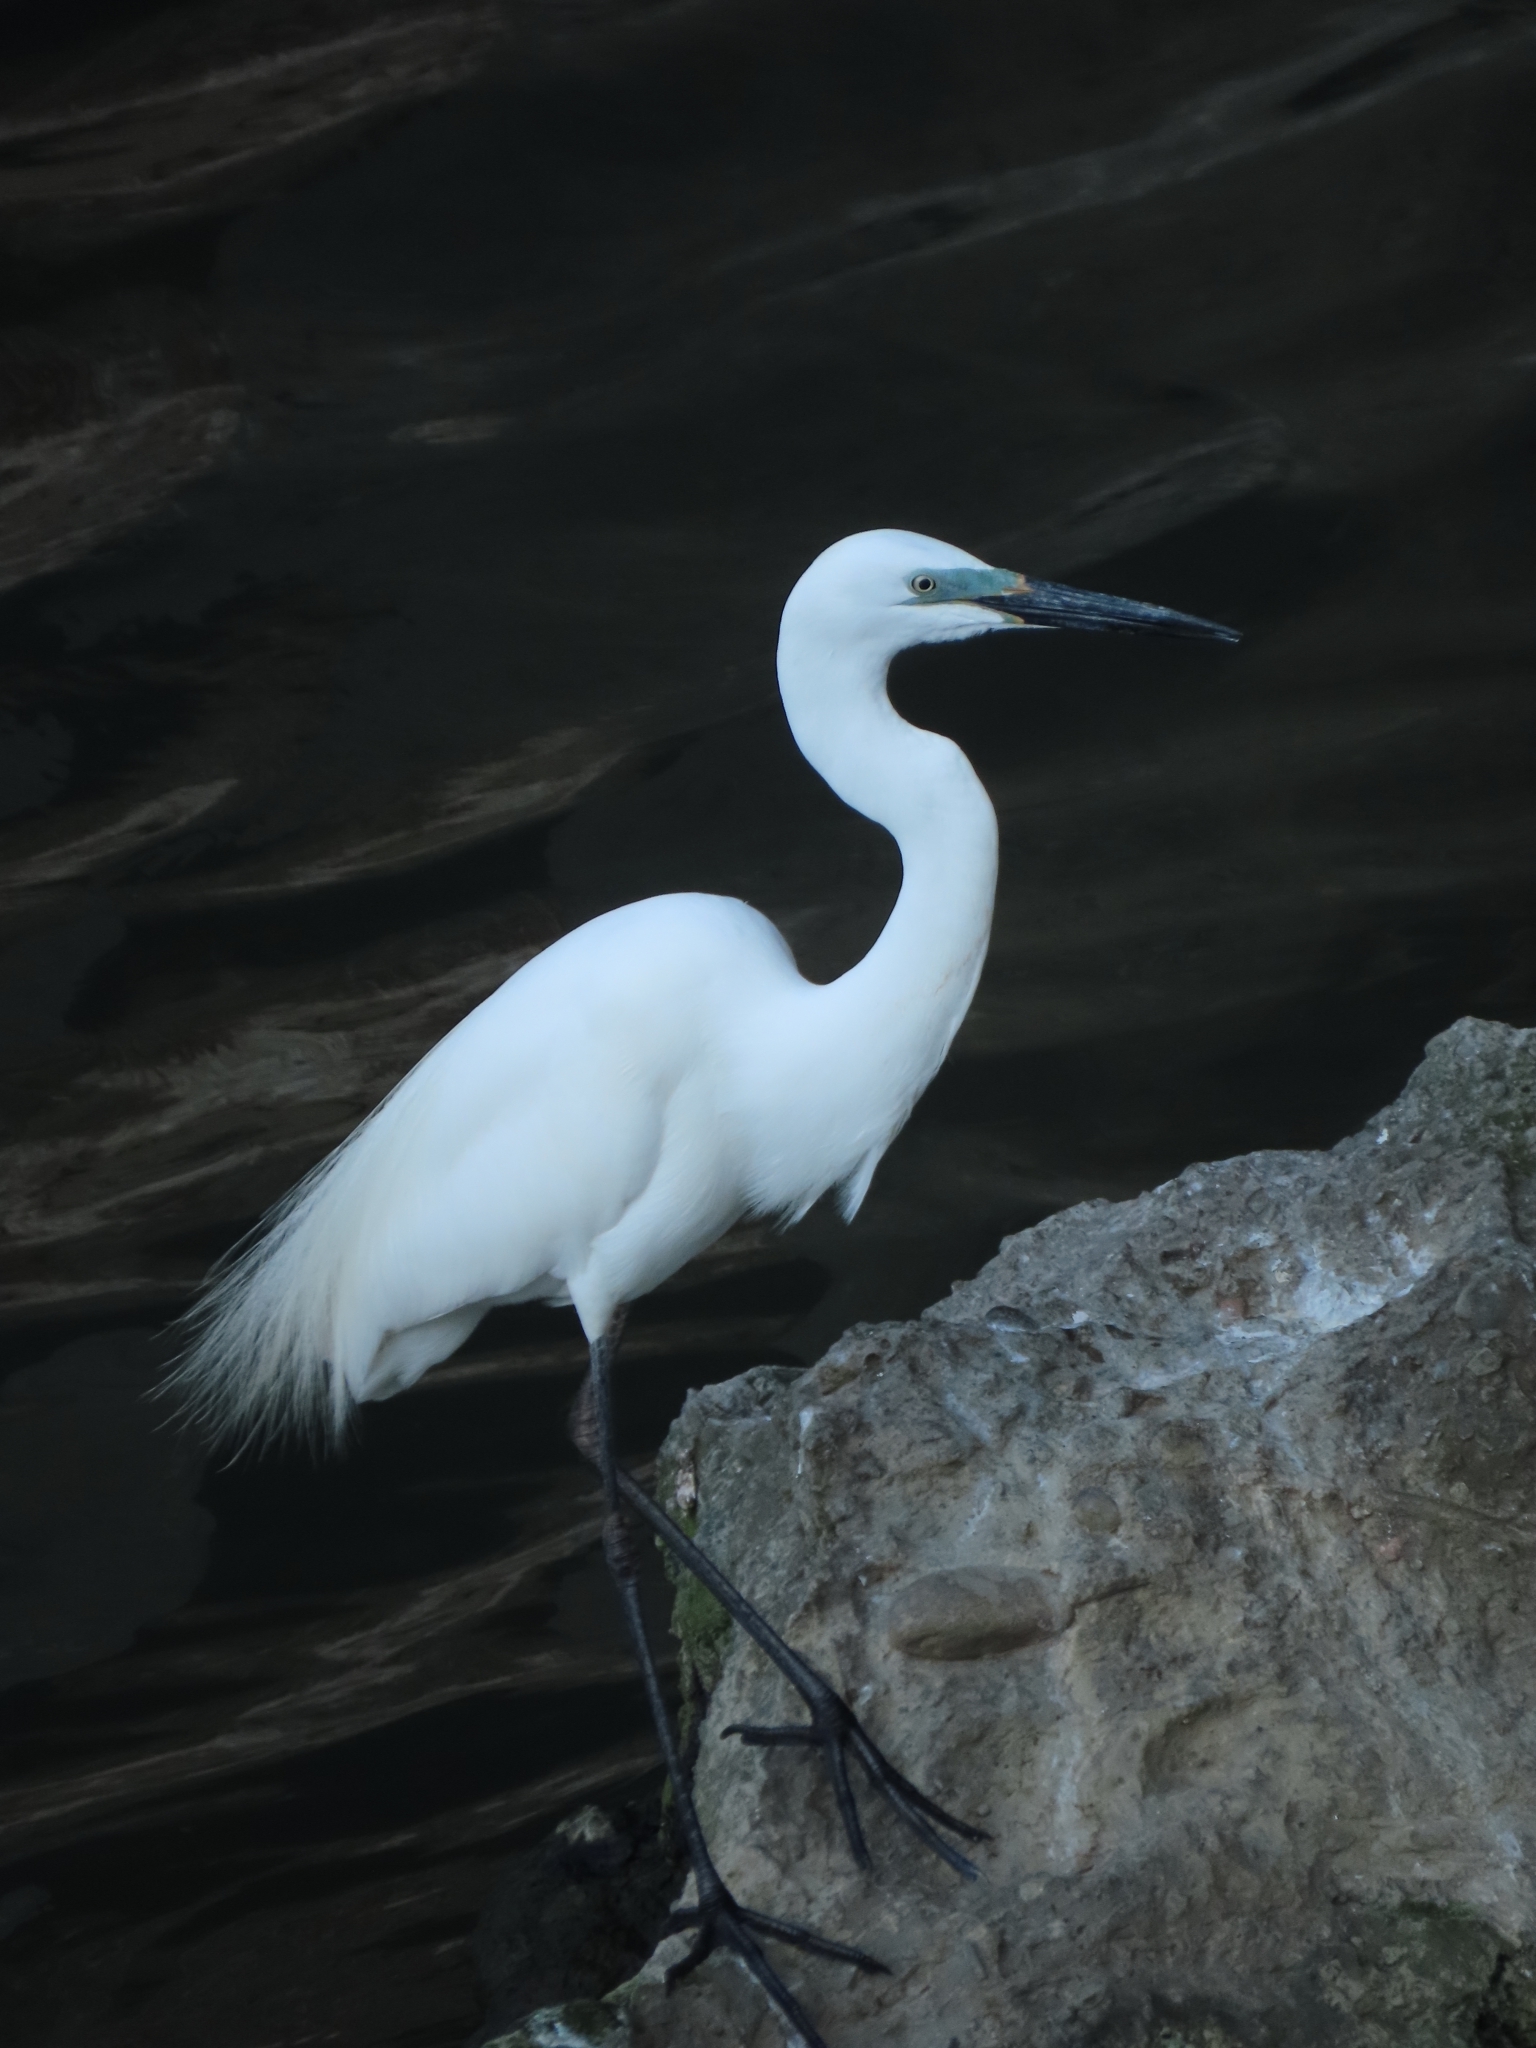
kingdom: Animalia
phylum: Chordata
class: Aves
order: Pelecaniformes
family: Ardeidae
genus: Ardea
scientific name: Ardea alba
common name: Great egret
